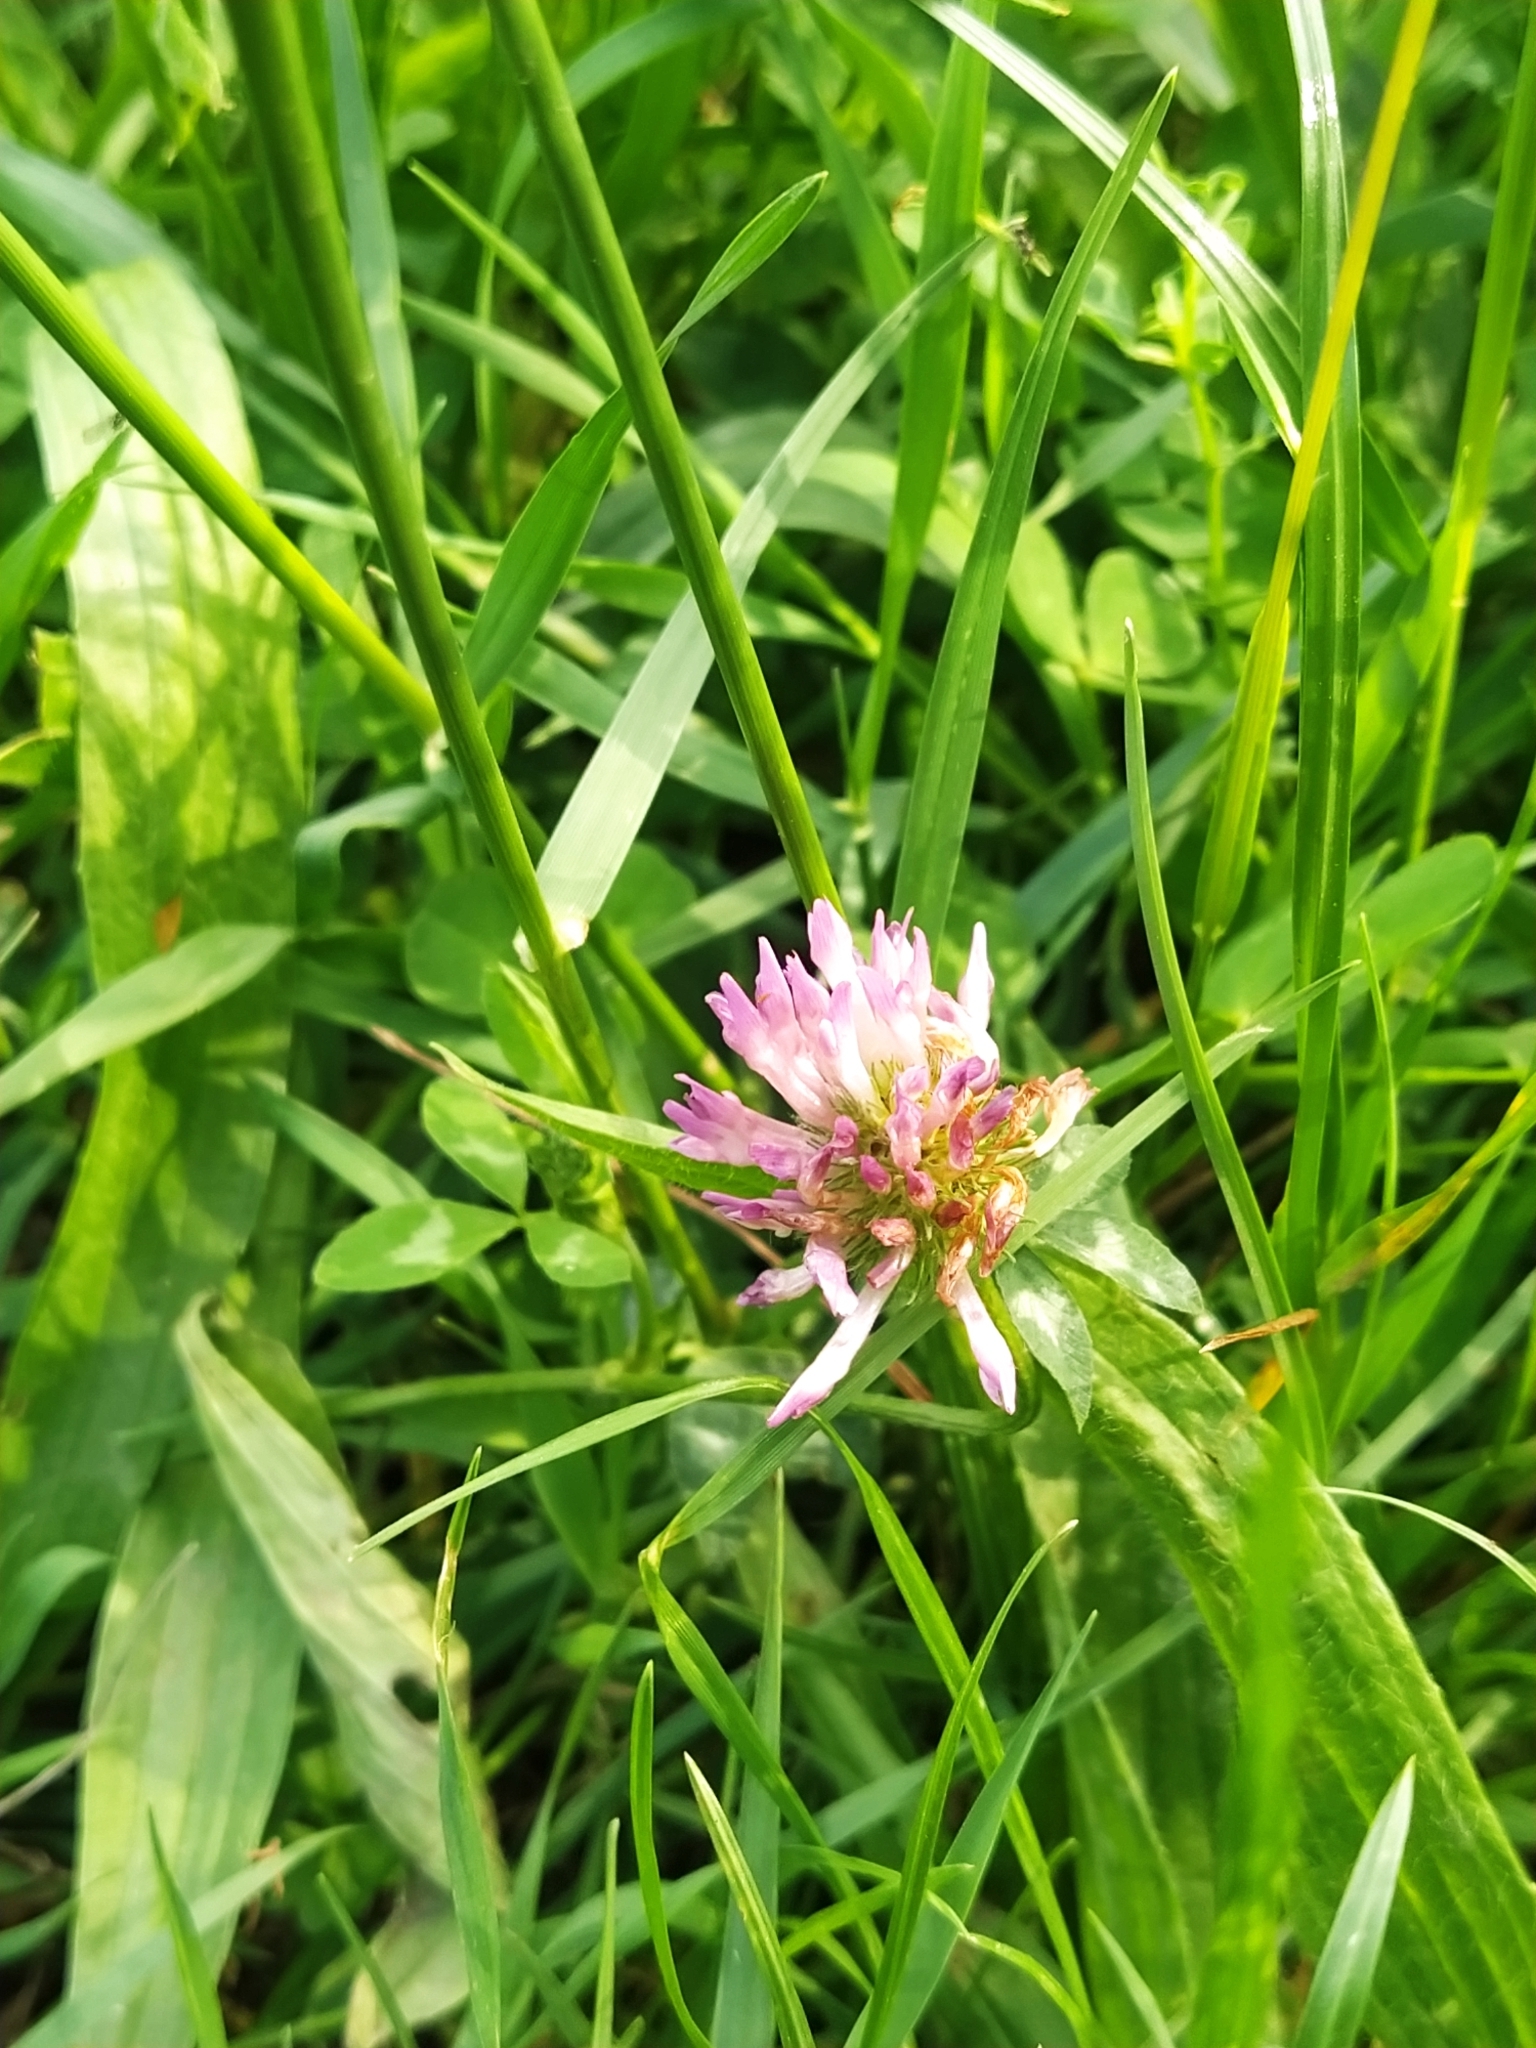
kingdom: Plantae
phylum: Tracheophyta
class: Magnoliopsida
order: Fabales
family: Fabaceae
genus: Trifolium
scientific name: Trifolium pratense
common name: Red clover
